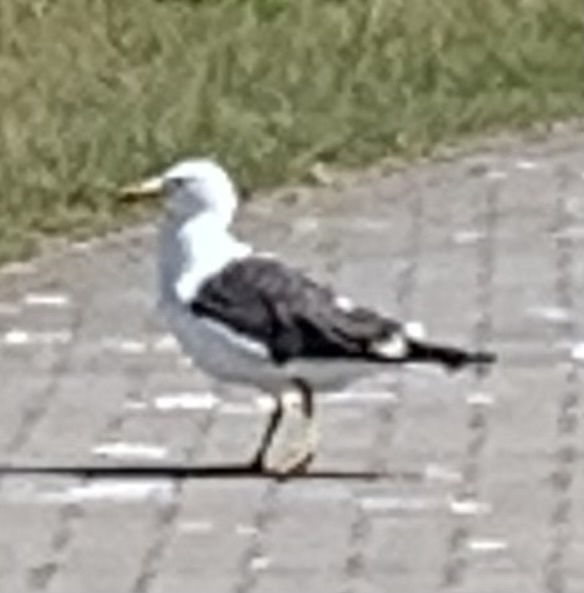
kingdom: Animalia
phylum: Chordata
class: Aves
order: Charadriiformes
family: Laridae
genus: Larus
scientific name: Larus fuscus
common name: Lesser black-backed gull
